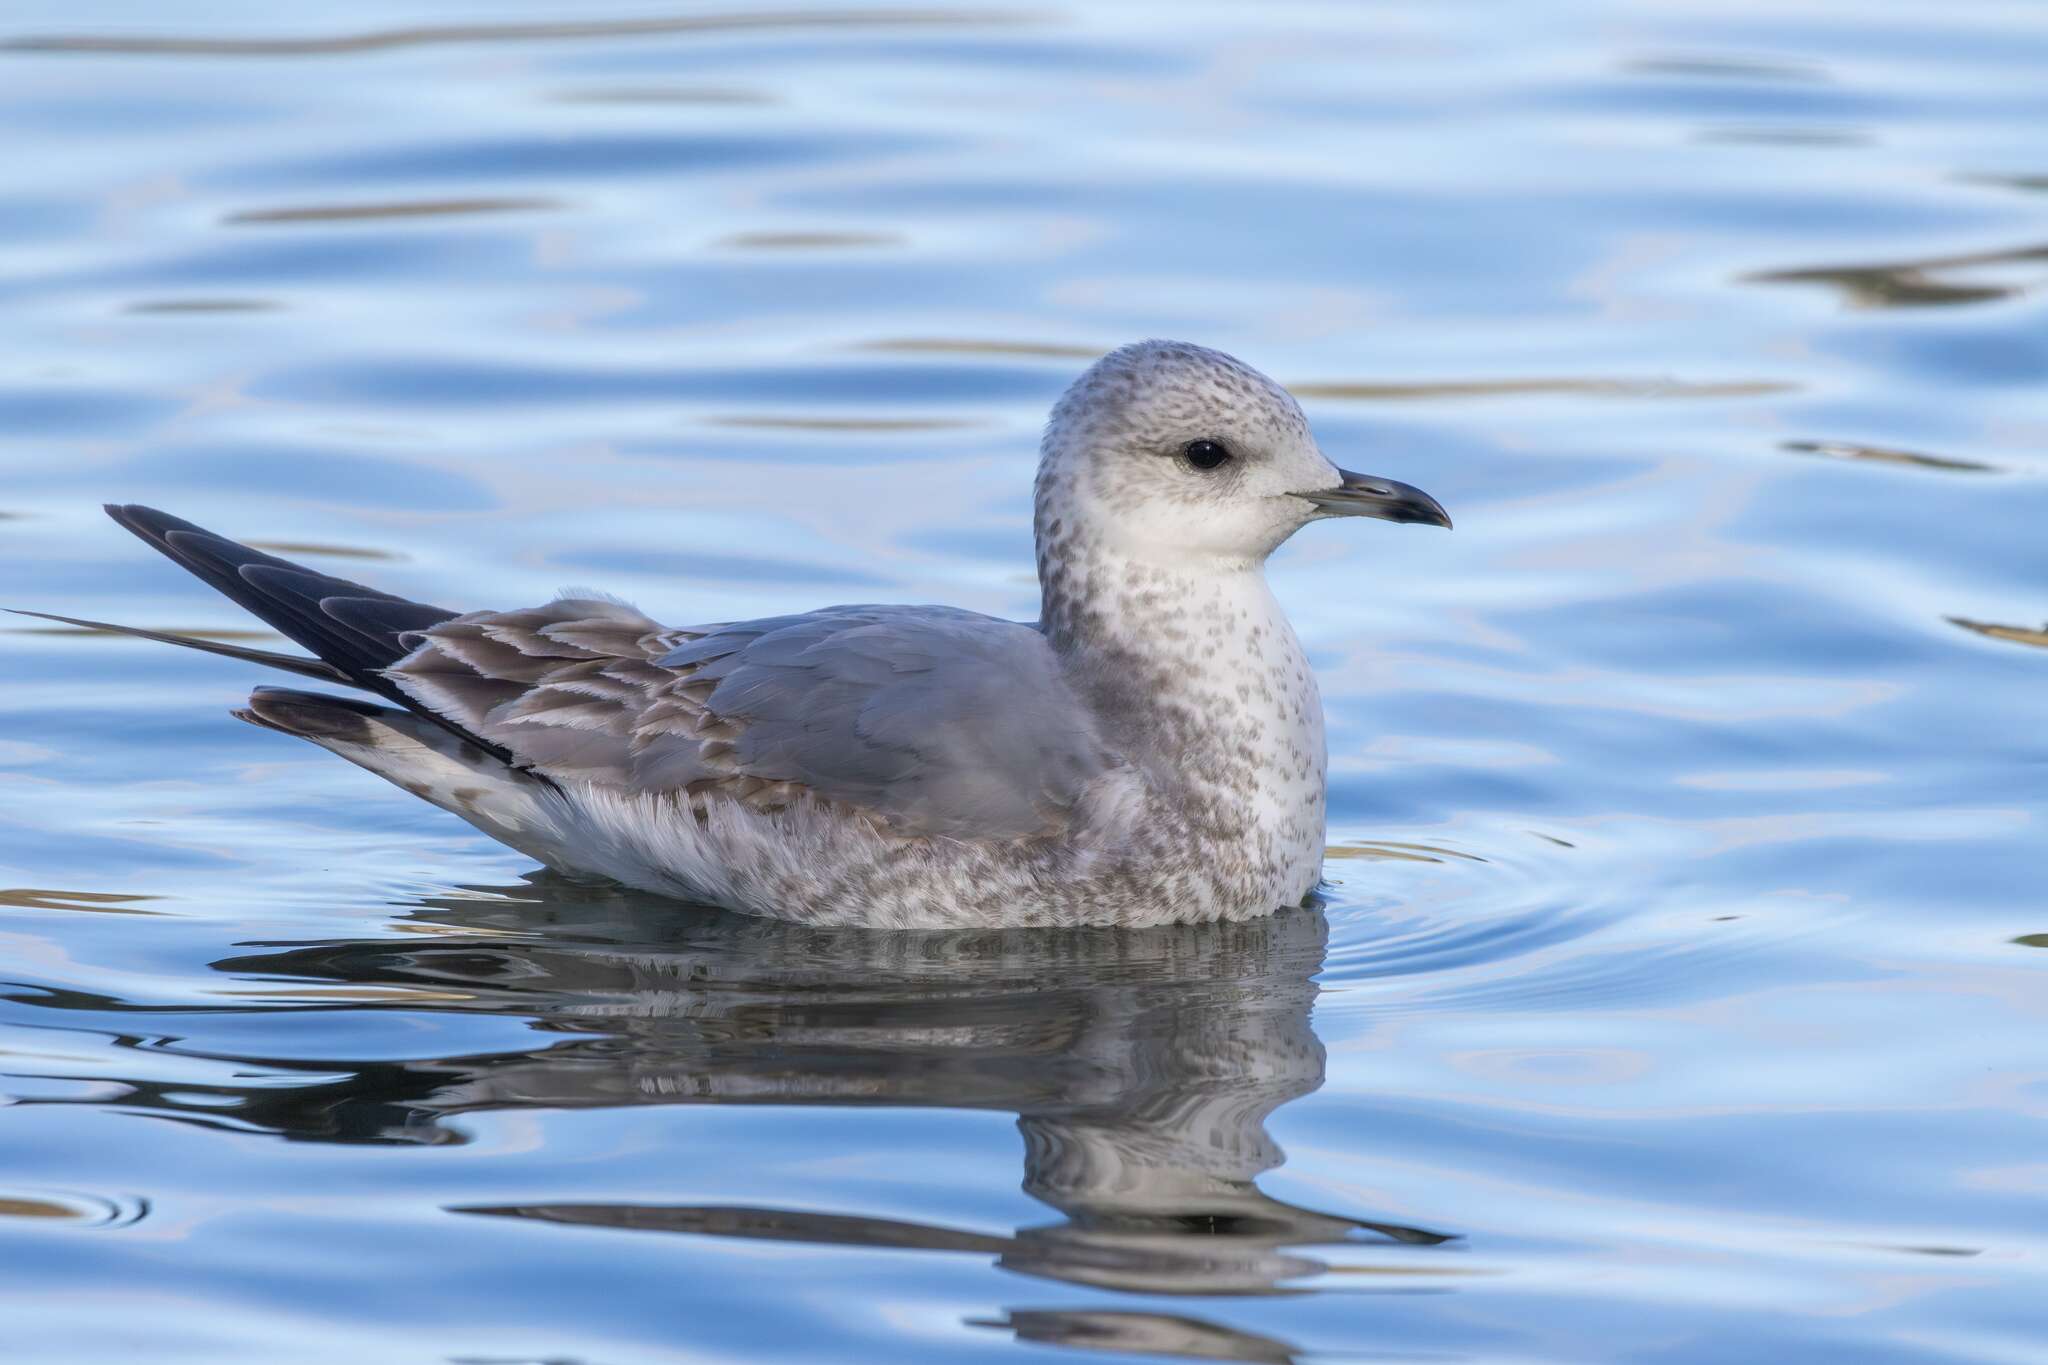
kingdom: Animalia
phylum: Chordata
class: Aves
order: Charadriiformes
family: Laridae
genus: Larus
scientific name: Larus canus
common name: Mew gull
